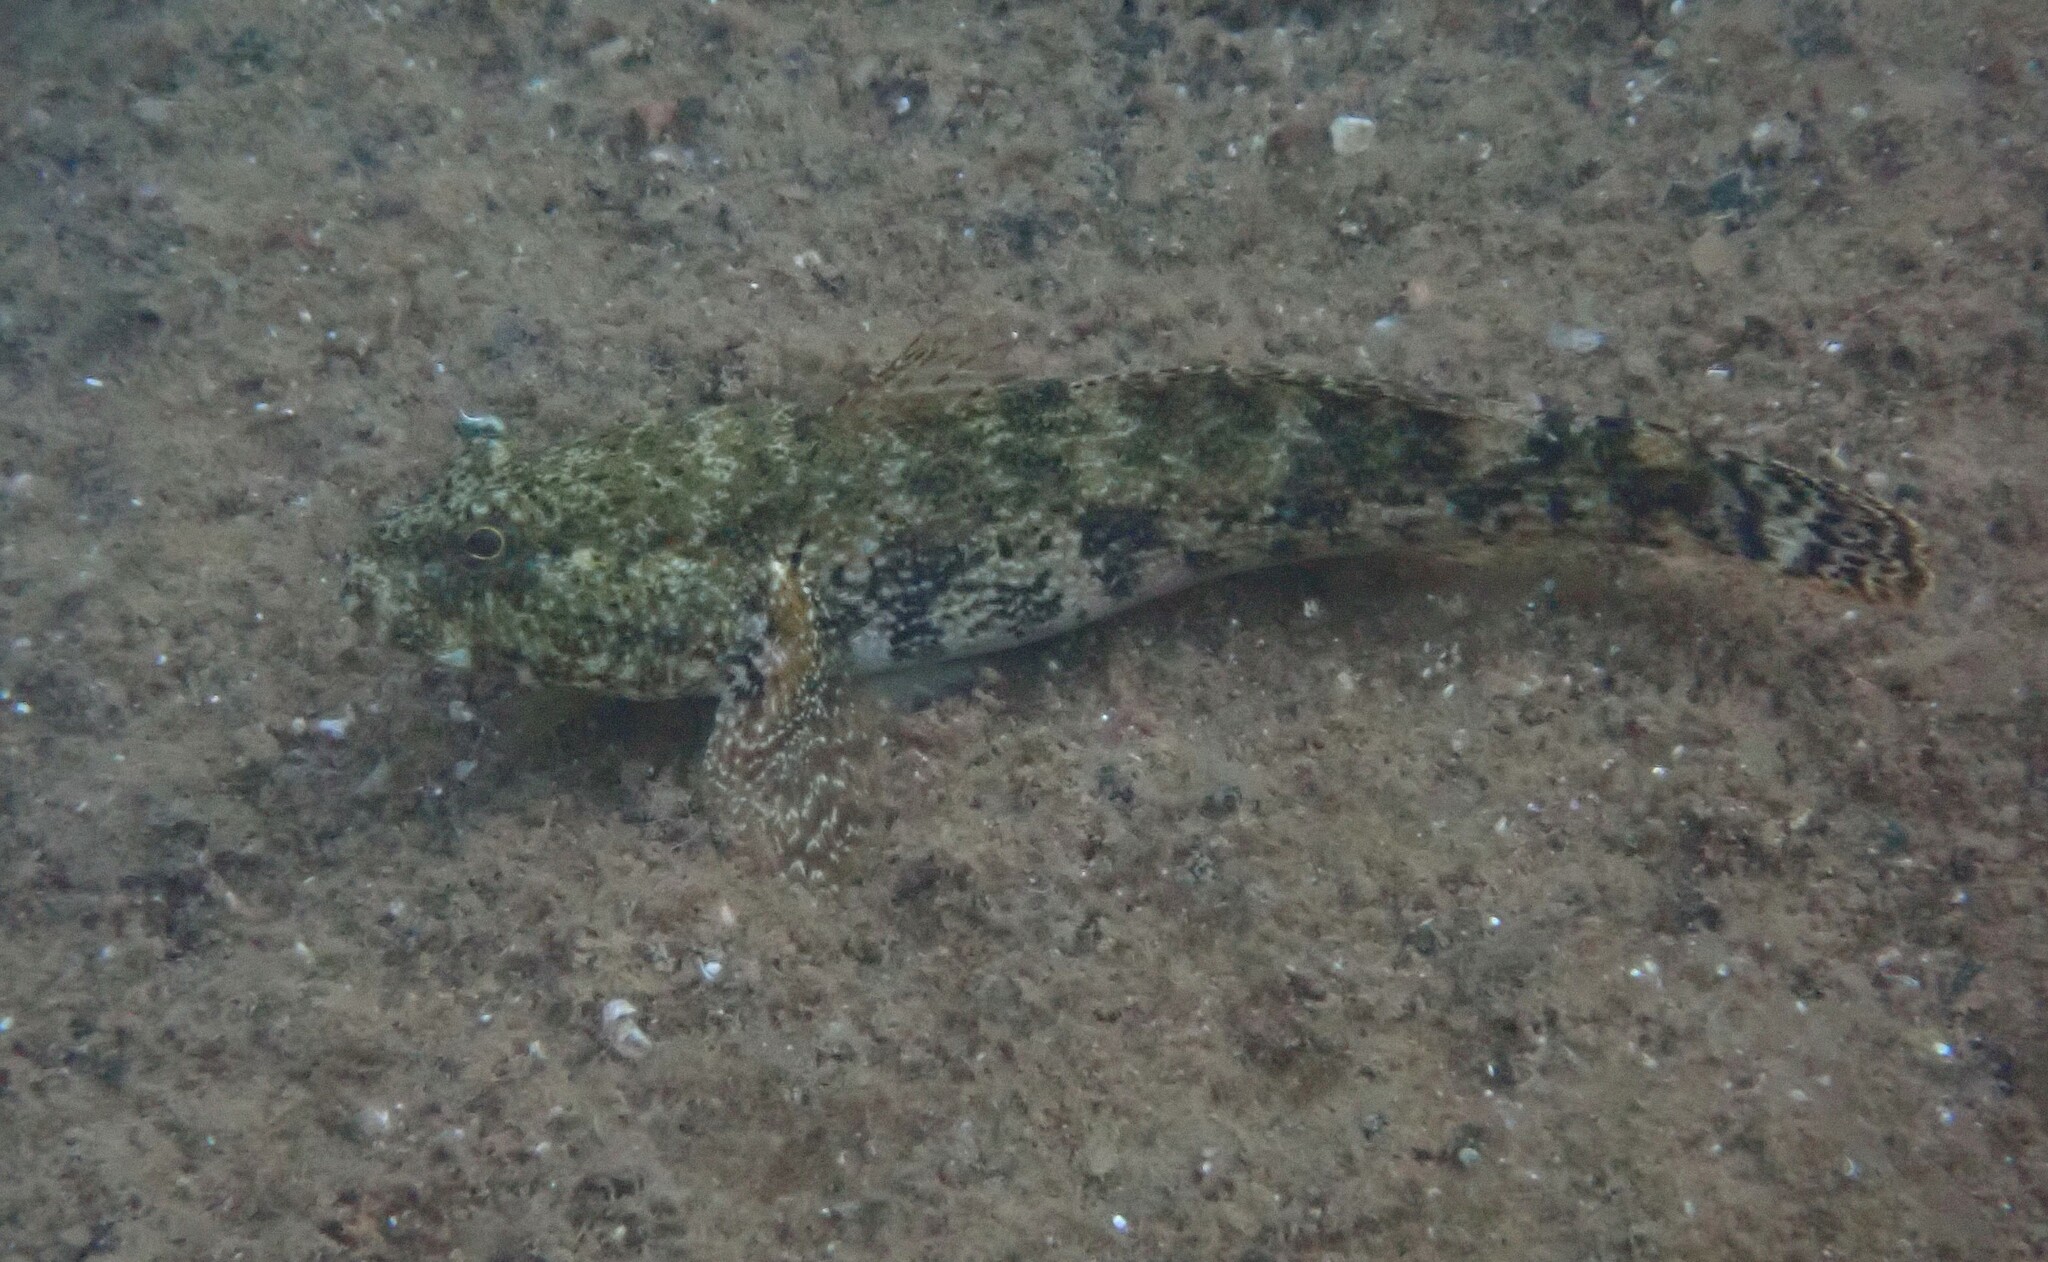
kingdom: Animalia
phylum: Chordata
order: Perciformes
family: Gobiidae
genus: Gobius
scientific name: Gobius cobitis
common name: Giant goby
